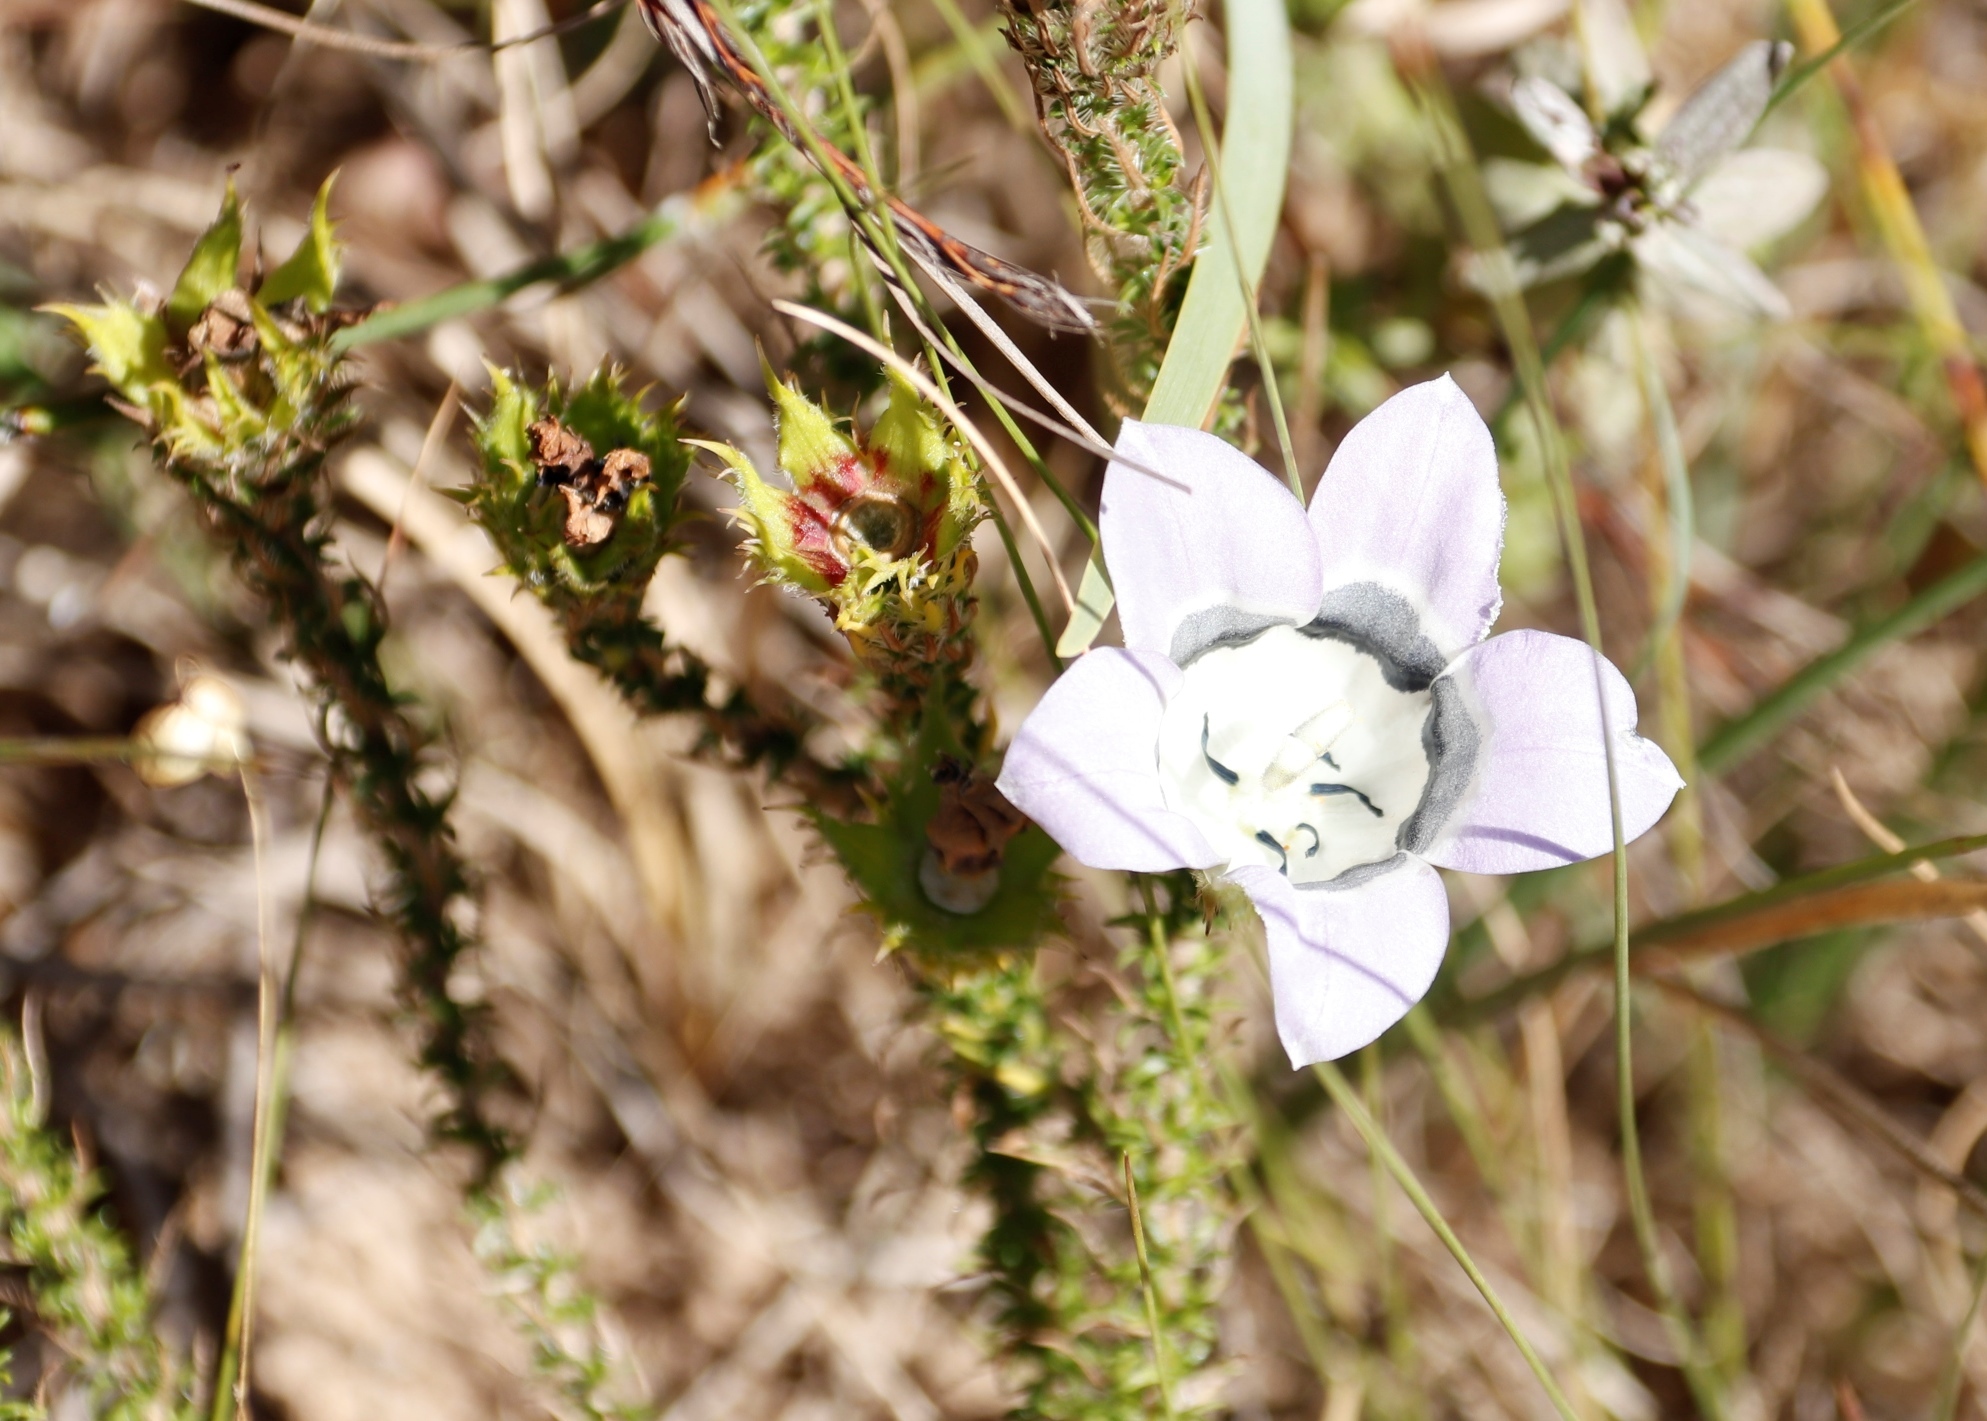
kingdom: Plantae
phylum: Tracheophyta
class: Magnoliopsida
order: Asterales
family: Campanulaceae
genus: Roella
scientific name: Roella ciliata
